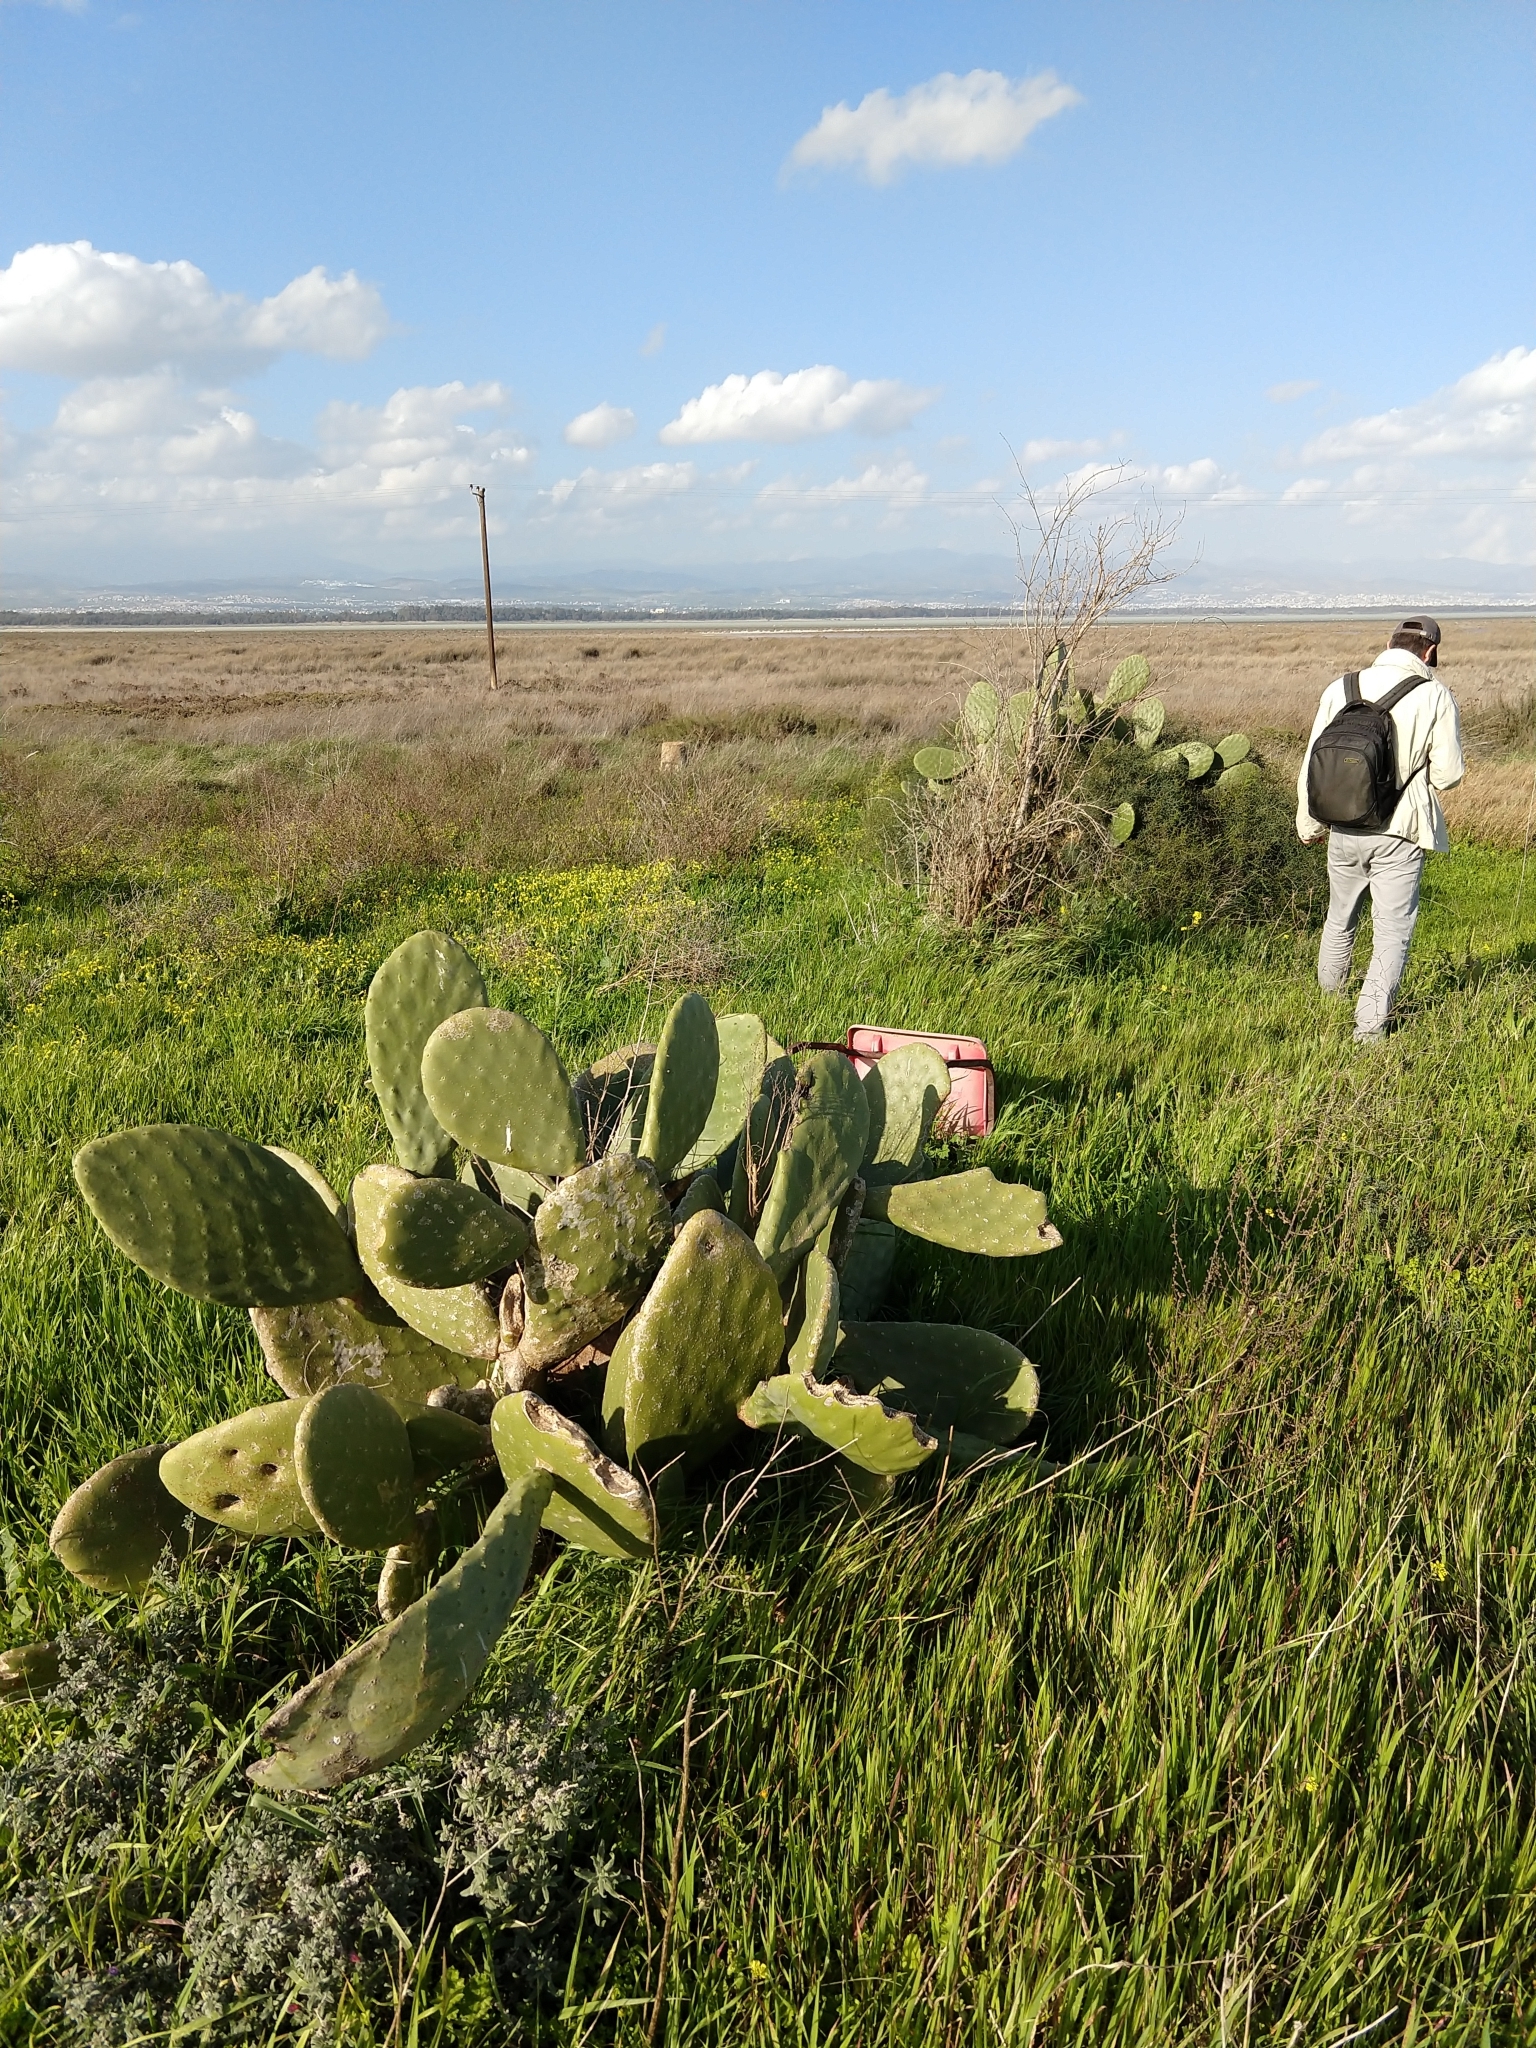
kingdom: Plantae
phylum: Tracheophyta
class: Magnoliopsida
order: Caryophyllales
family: Cactaceae
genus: Opuntia
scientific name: Opuntia ficus-indica
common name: Barbary fig
